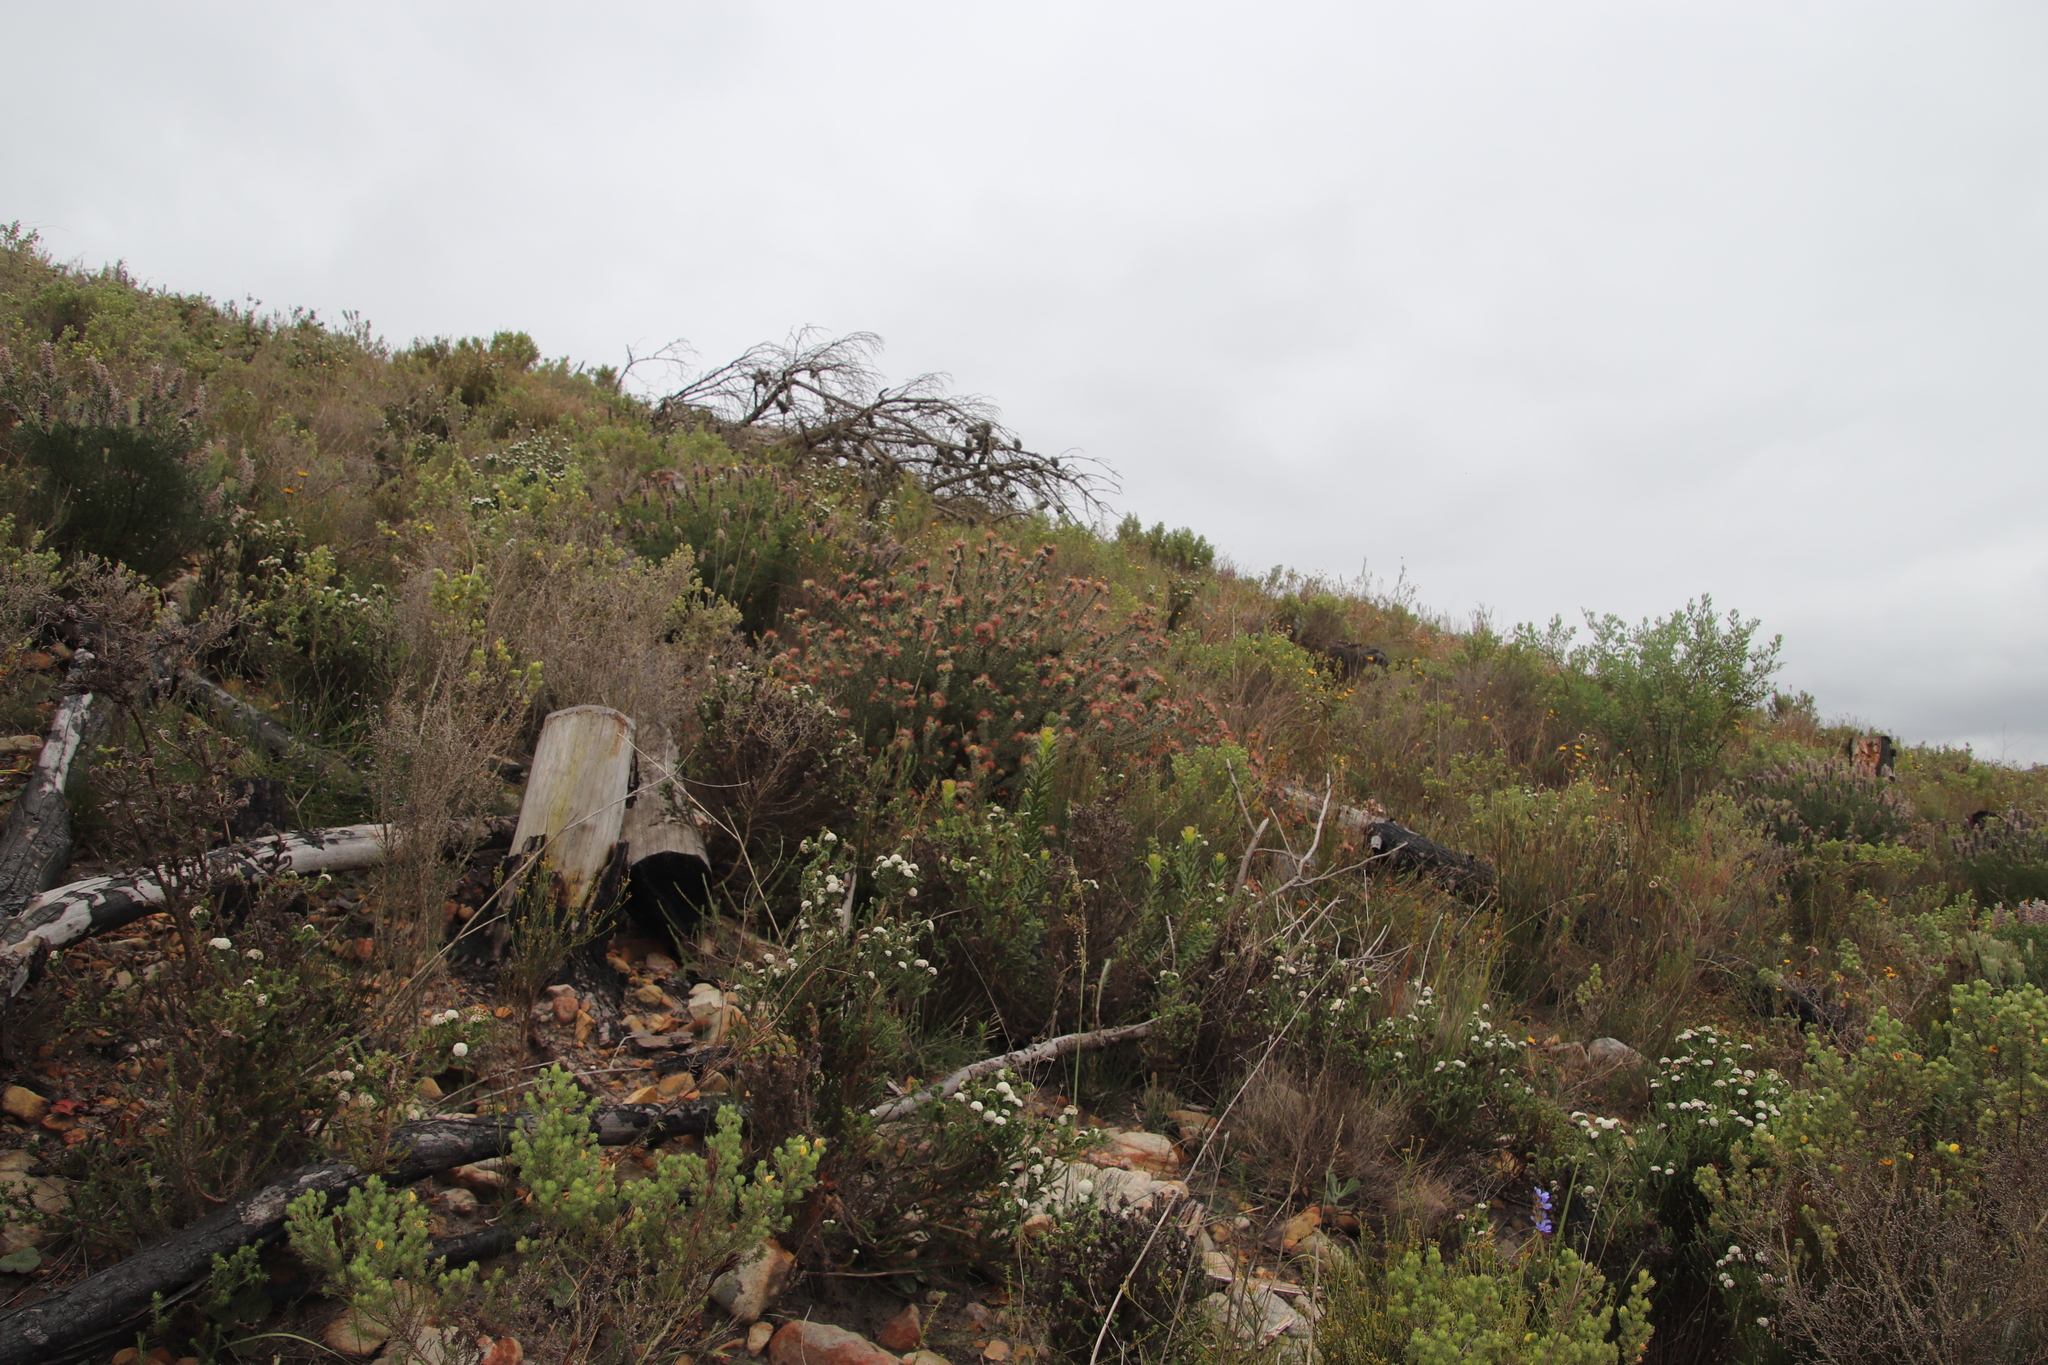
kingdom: Plantae
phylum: Tracheophyta
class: Magnoliopsida
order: Proteales
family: Proteaceae
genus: Leucospermum
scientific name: Leucospermum calligerum
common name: Arid pincushion
